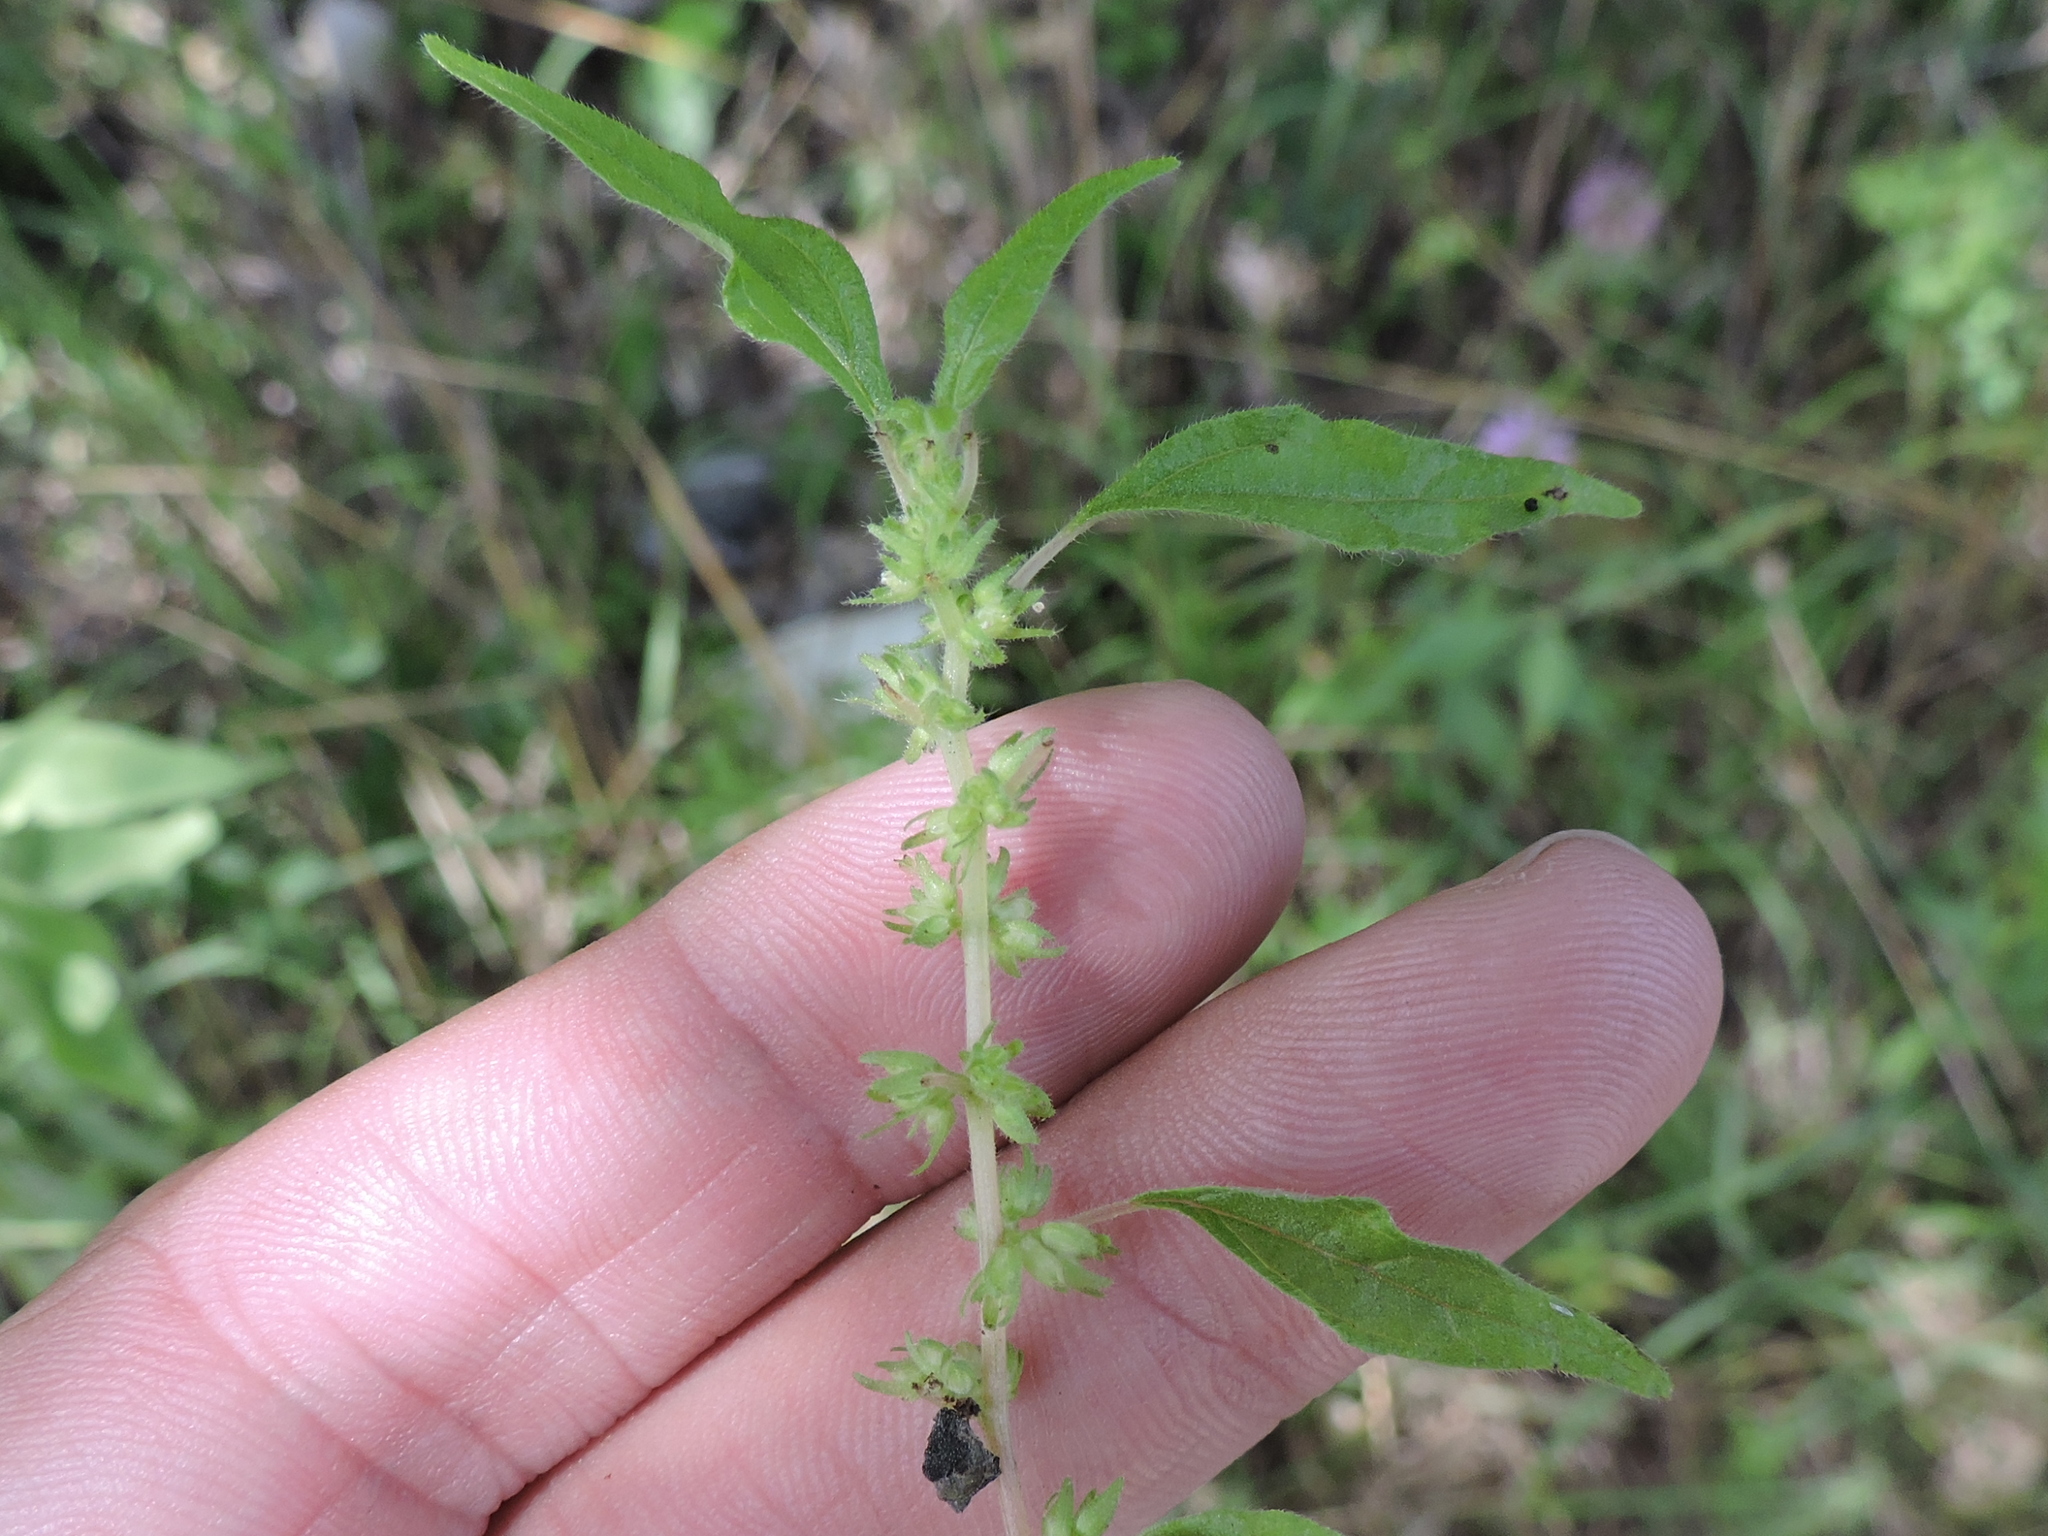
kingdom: Plantae
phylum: Tracheophyta
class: Magnoliopsida
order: Rosales
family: Urticaceae
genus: Parietaria
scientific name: Parietaria pensylvanica
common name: Pennsylvania pellitory
